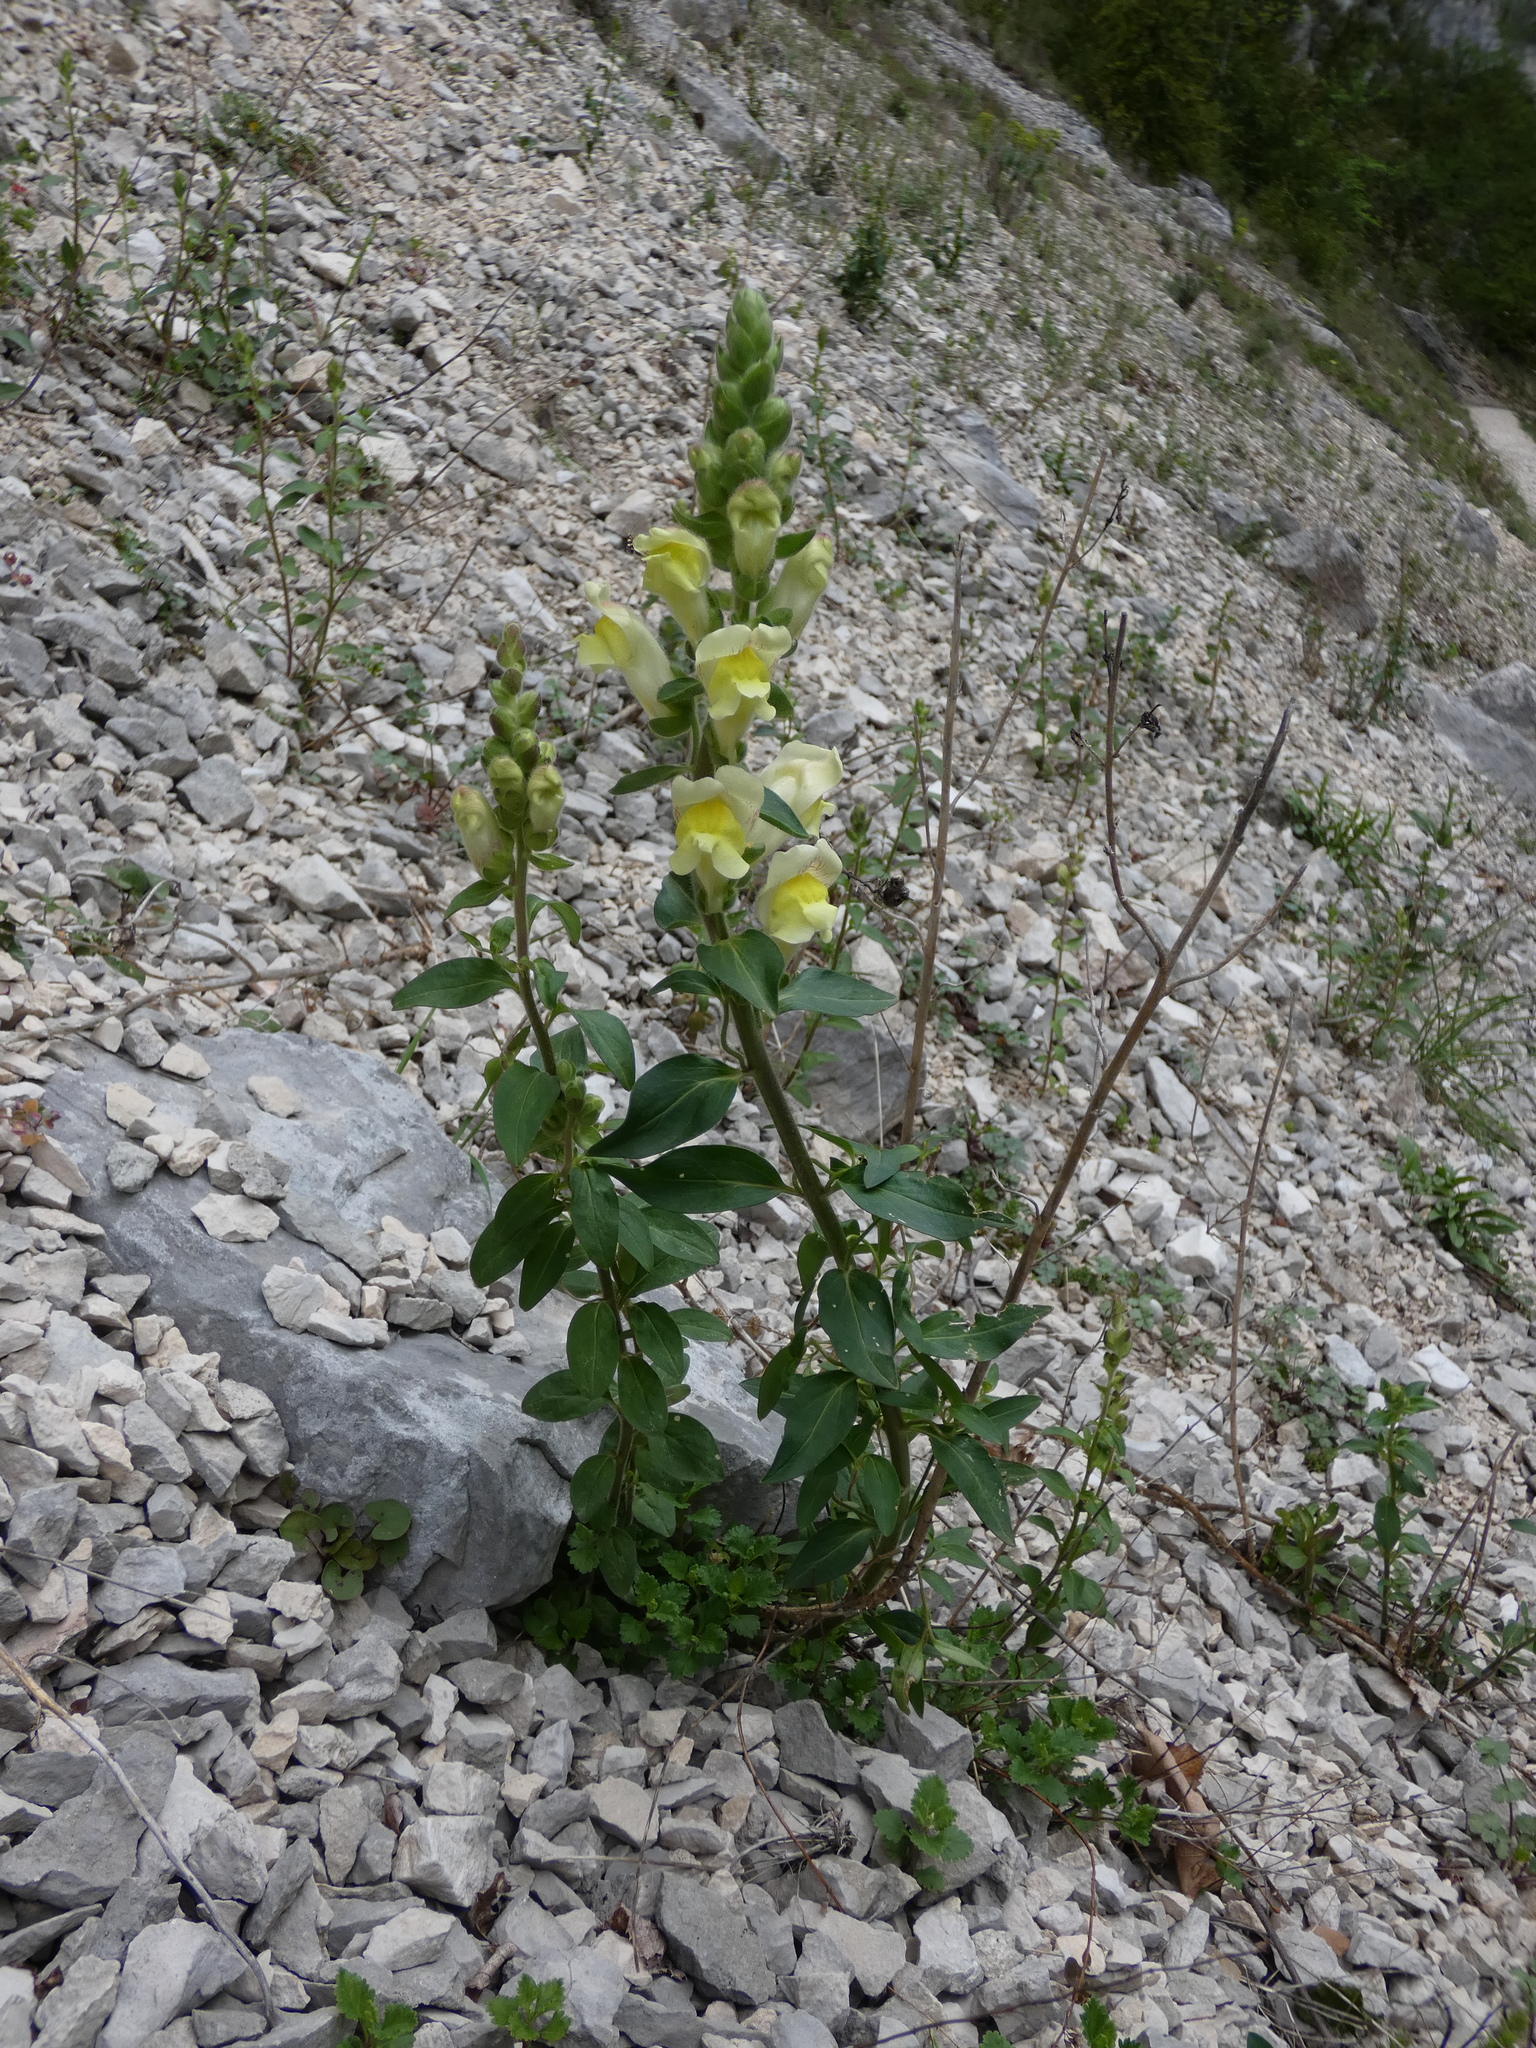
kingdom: Plantae
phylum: Tracheophyta
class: Magnoliopsida
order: Lamiales
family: Plantaginaceae
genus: Antirrhinum
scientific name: Antirrhinum latifolium
